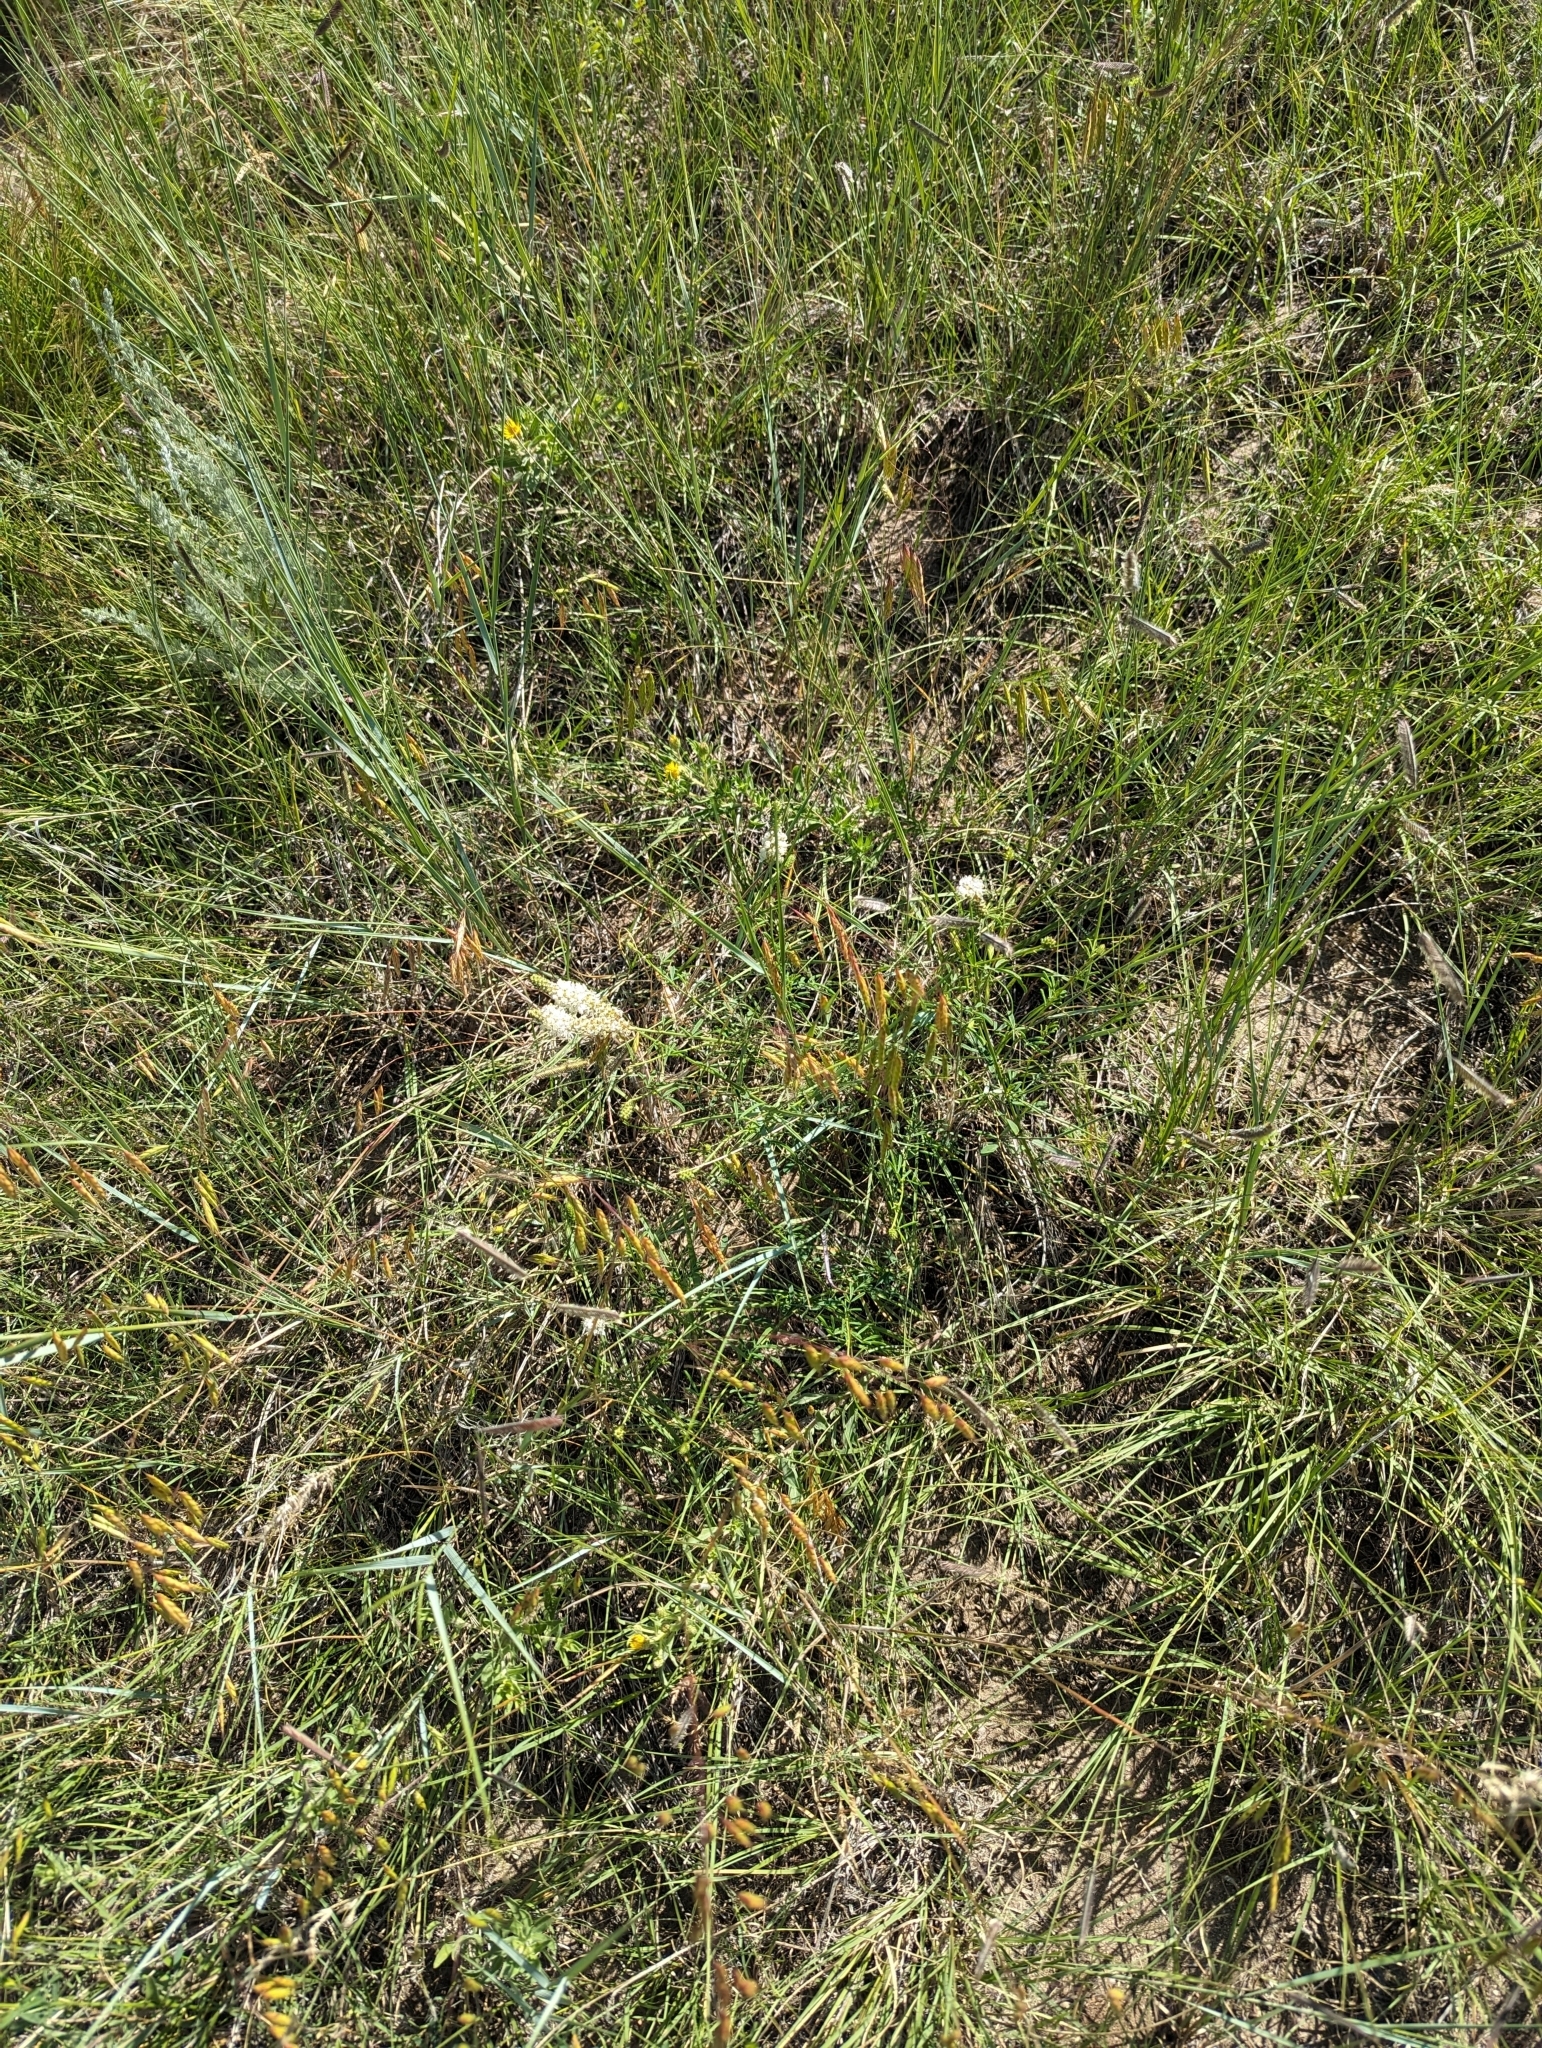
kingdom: Plantae
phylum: Tracheophyta
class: Magnoliopsida
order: Fabales
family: Fabaceae
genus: Dalea
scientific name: Dalea candida
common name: White prairie-clover
